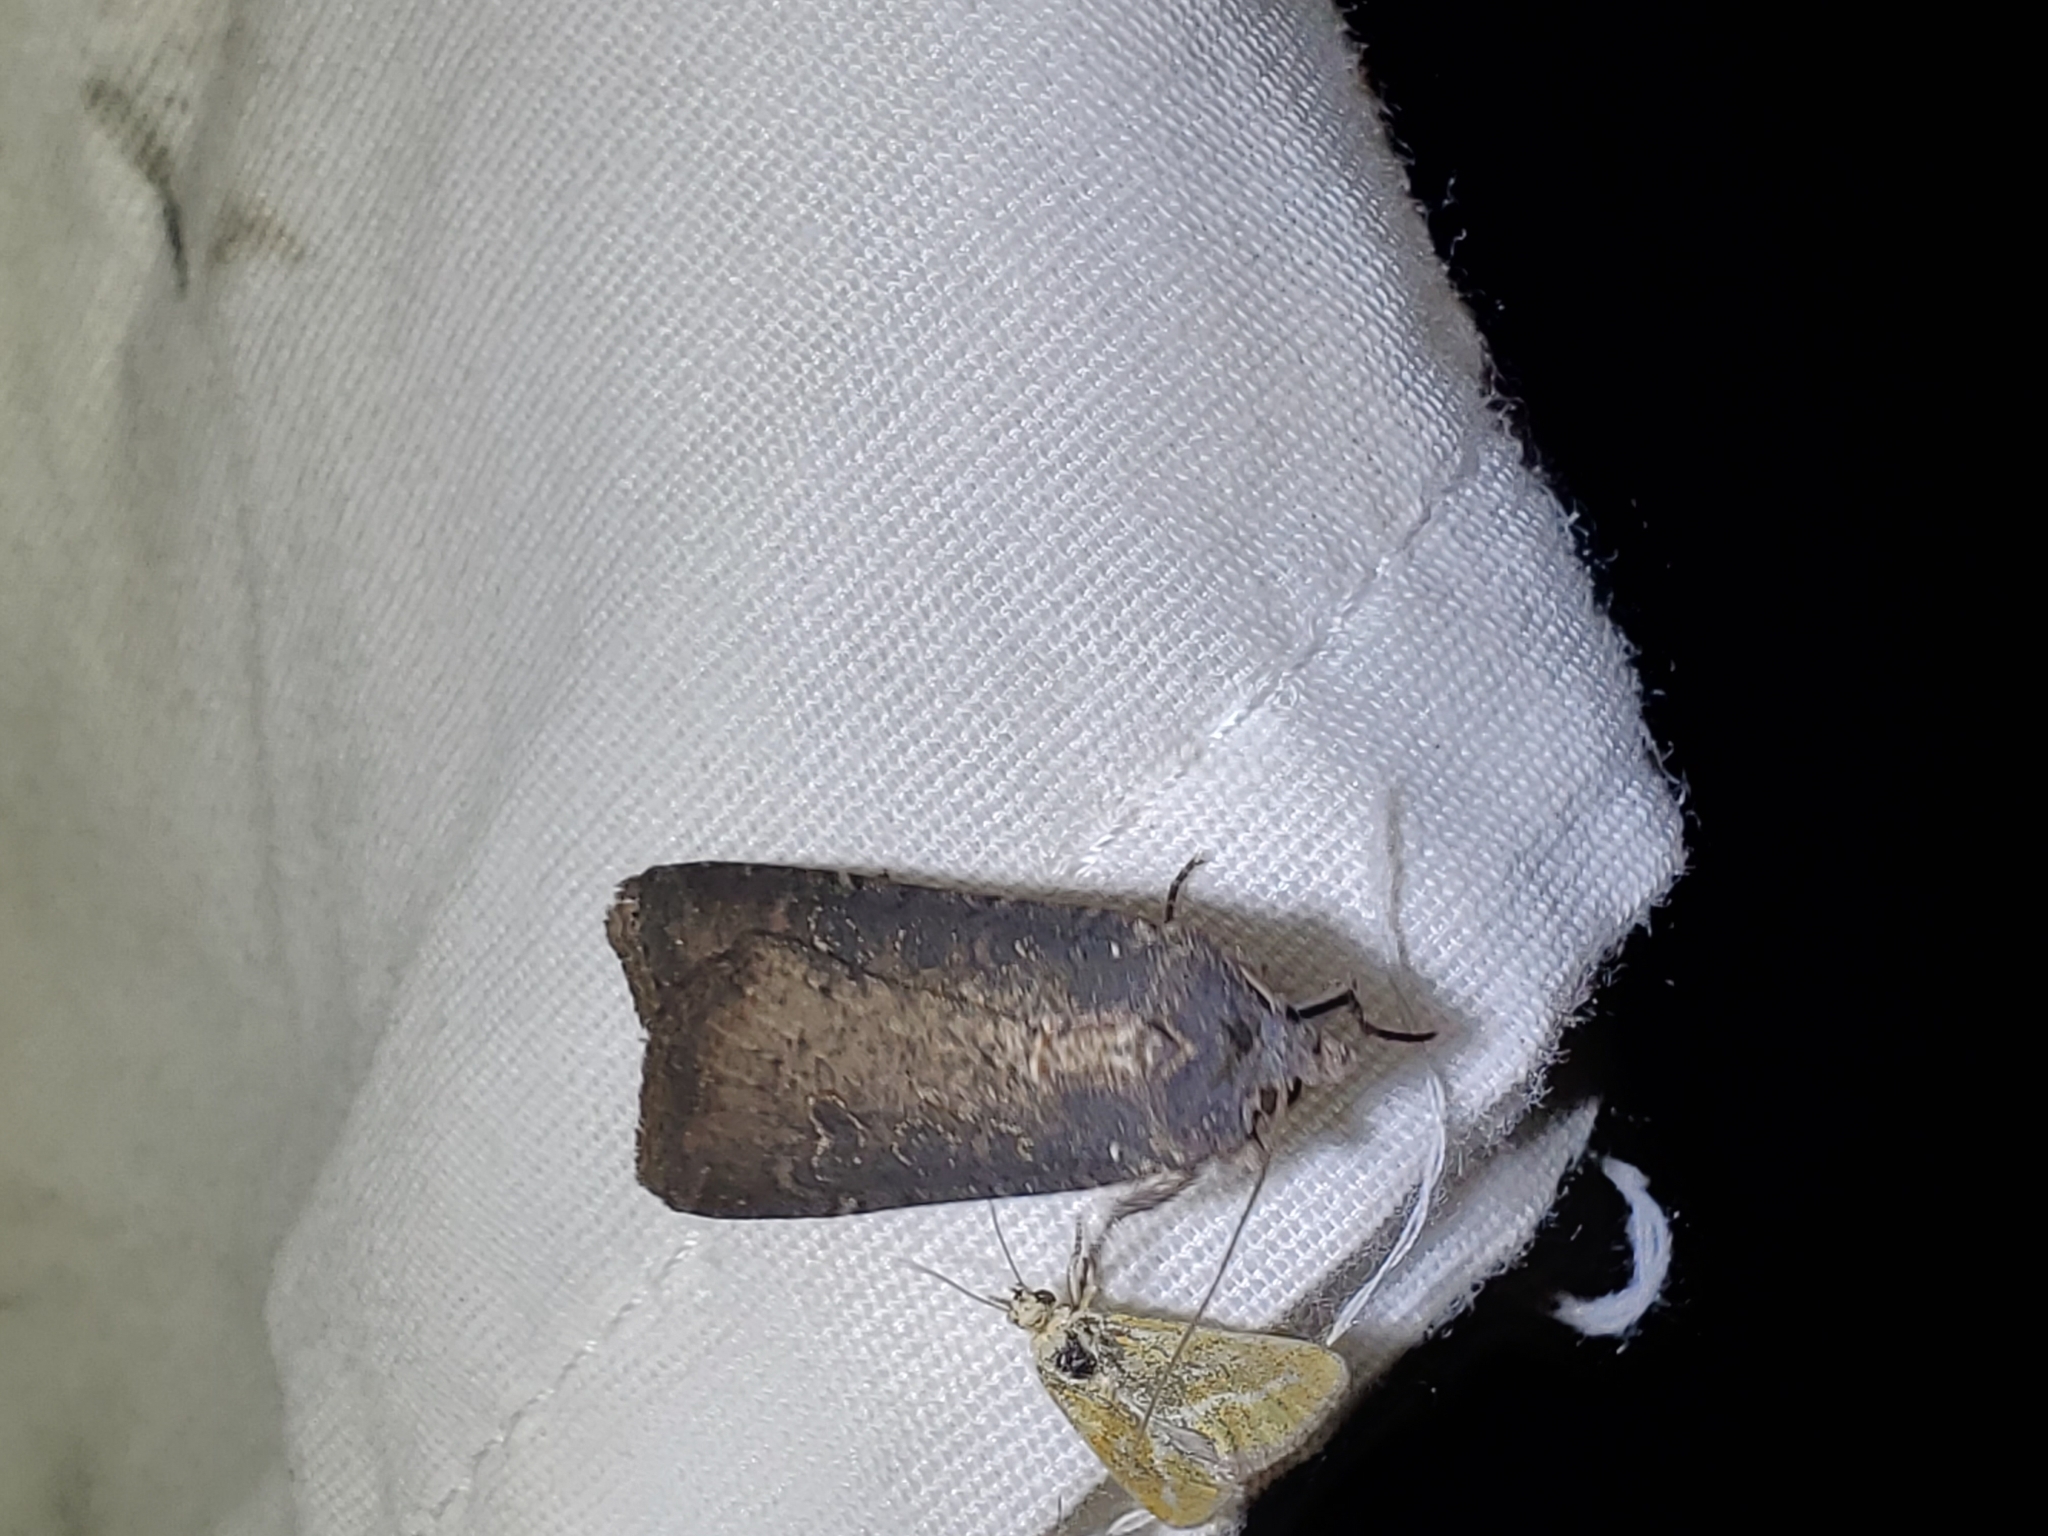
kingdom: Animalia
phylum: Arthropoda
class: Insecta
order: Lepidoptera
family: Noctuidae
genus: Peridroma
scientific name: Peridroma saucia
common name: Pearly underwing
